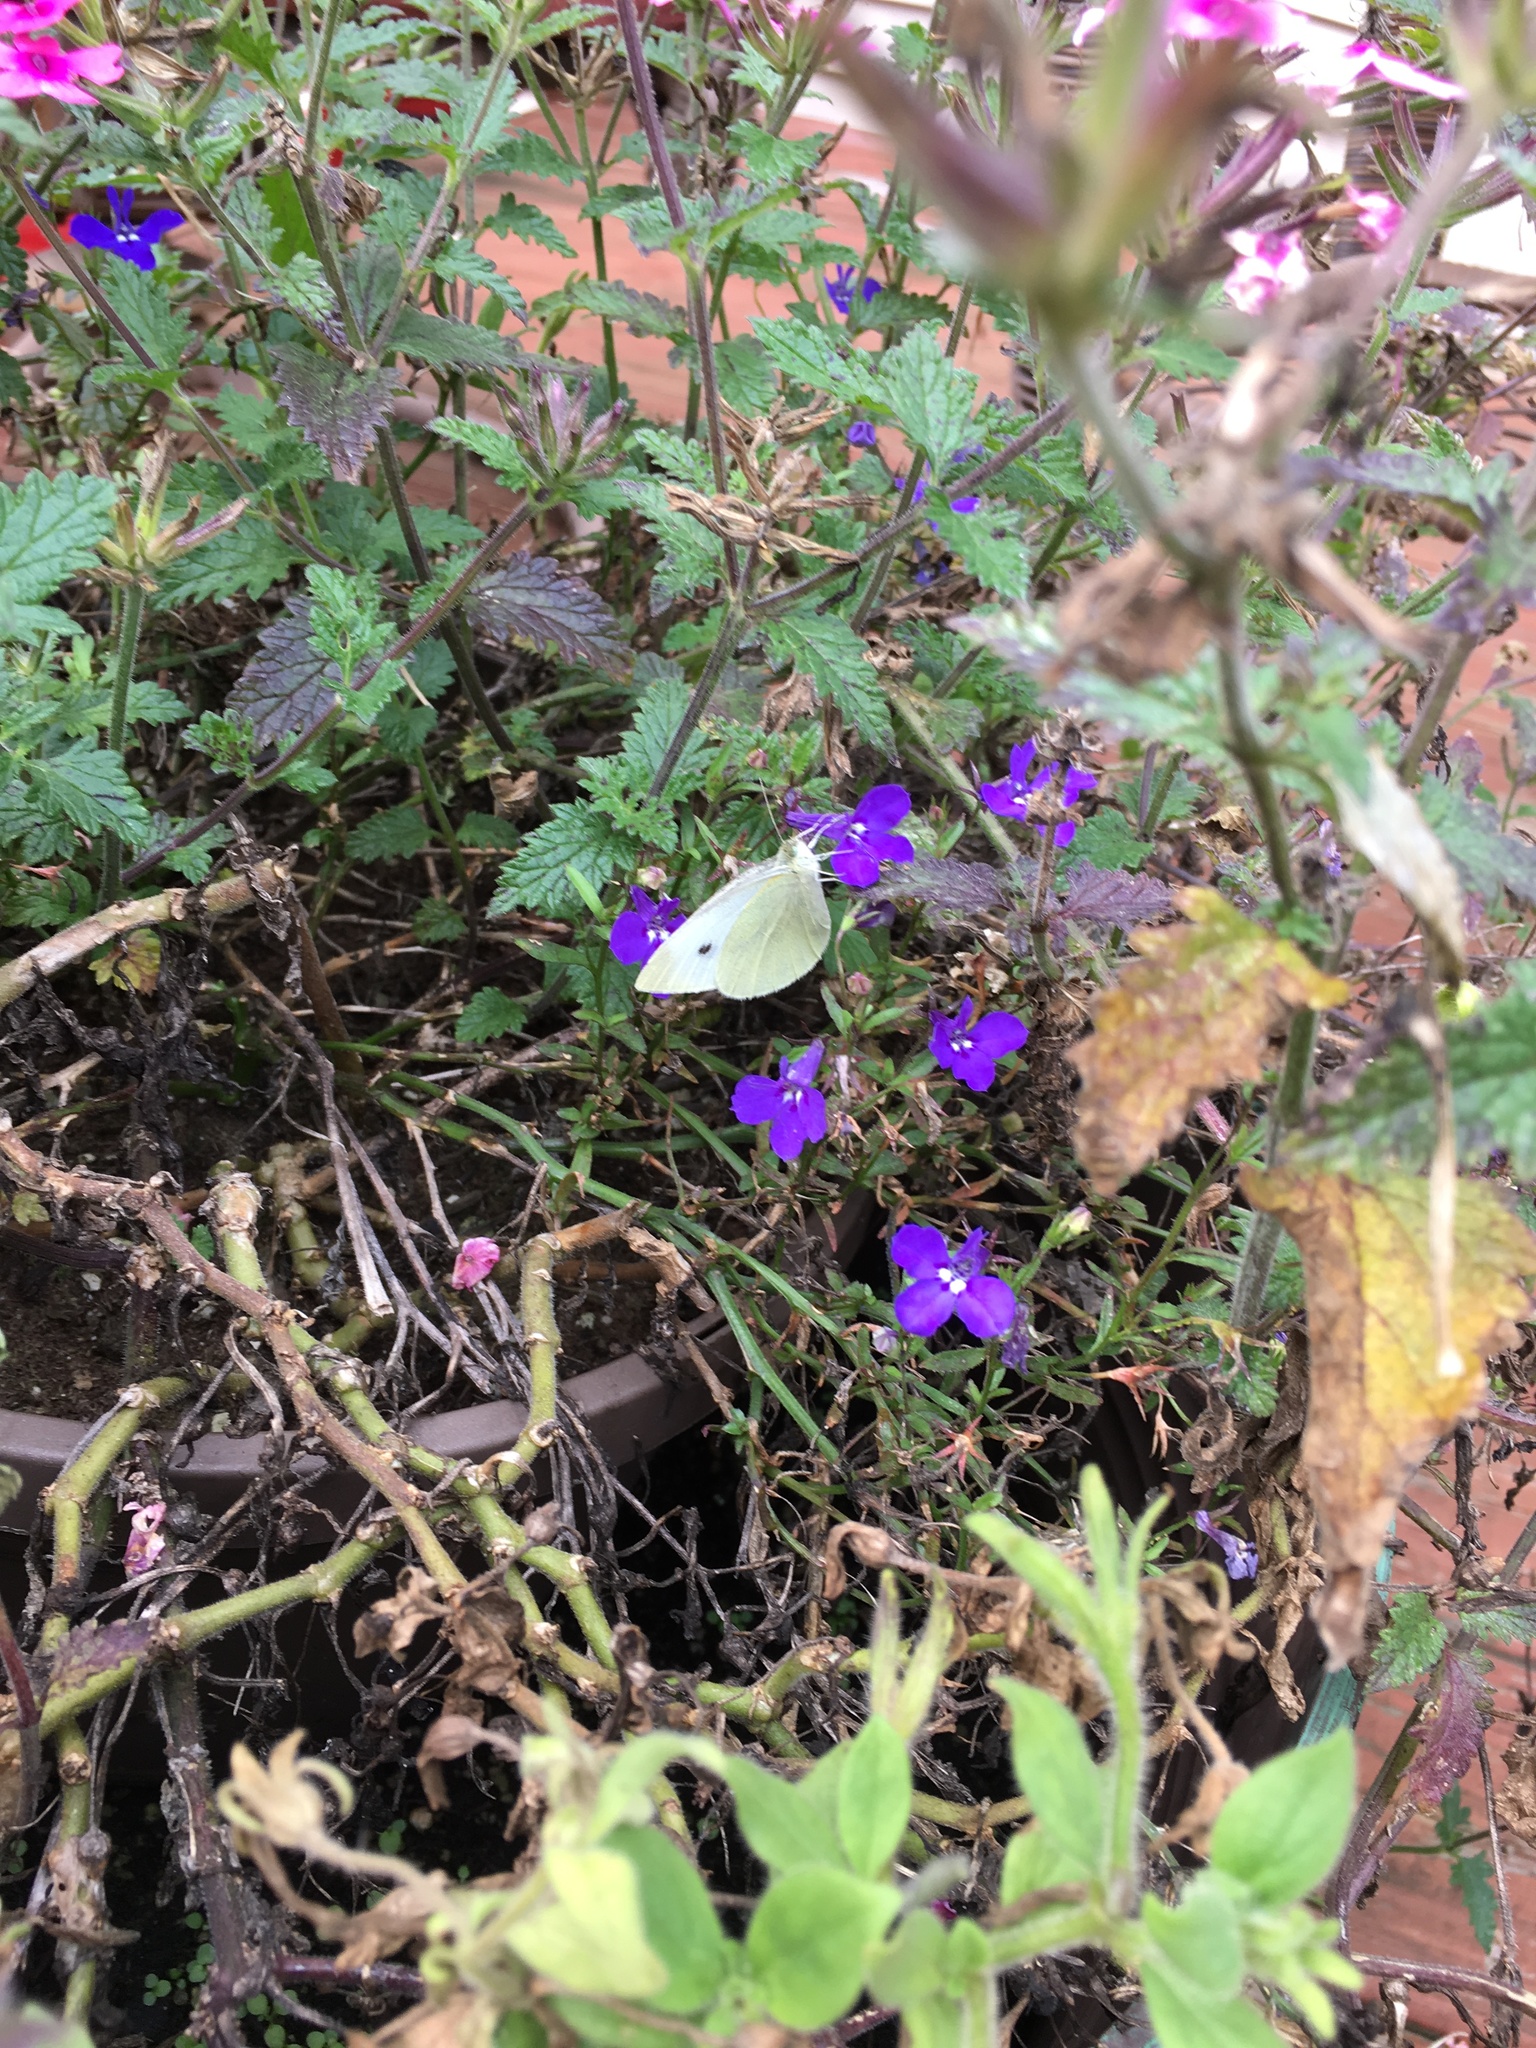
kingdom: Animalia
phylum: Arthropoda
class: Insecta
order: Lepidoptera
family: Pieridae
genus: Pieris
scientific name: Pieris rapae
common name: Small white
